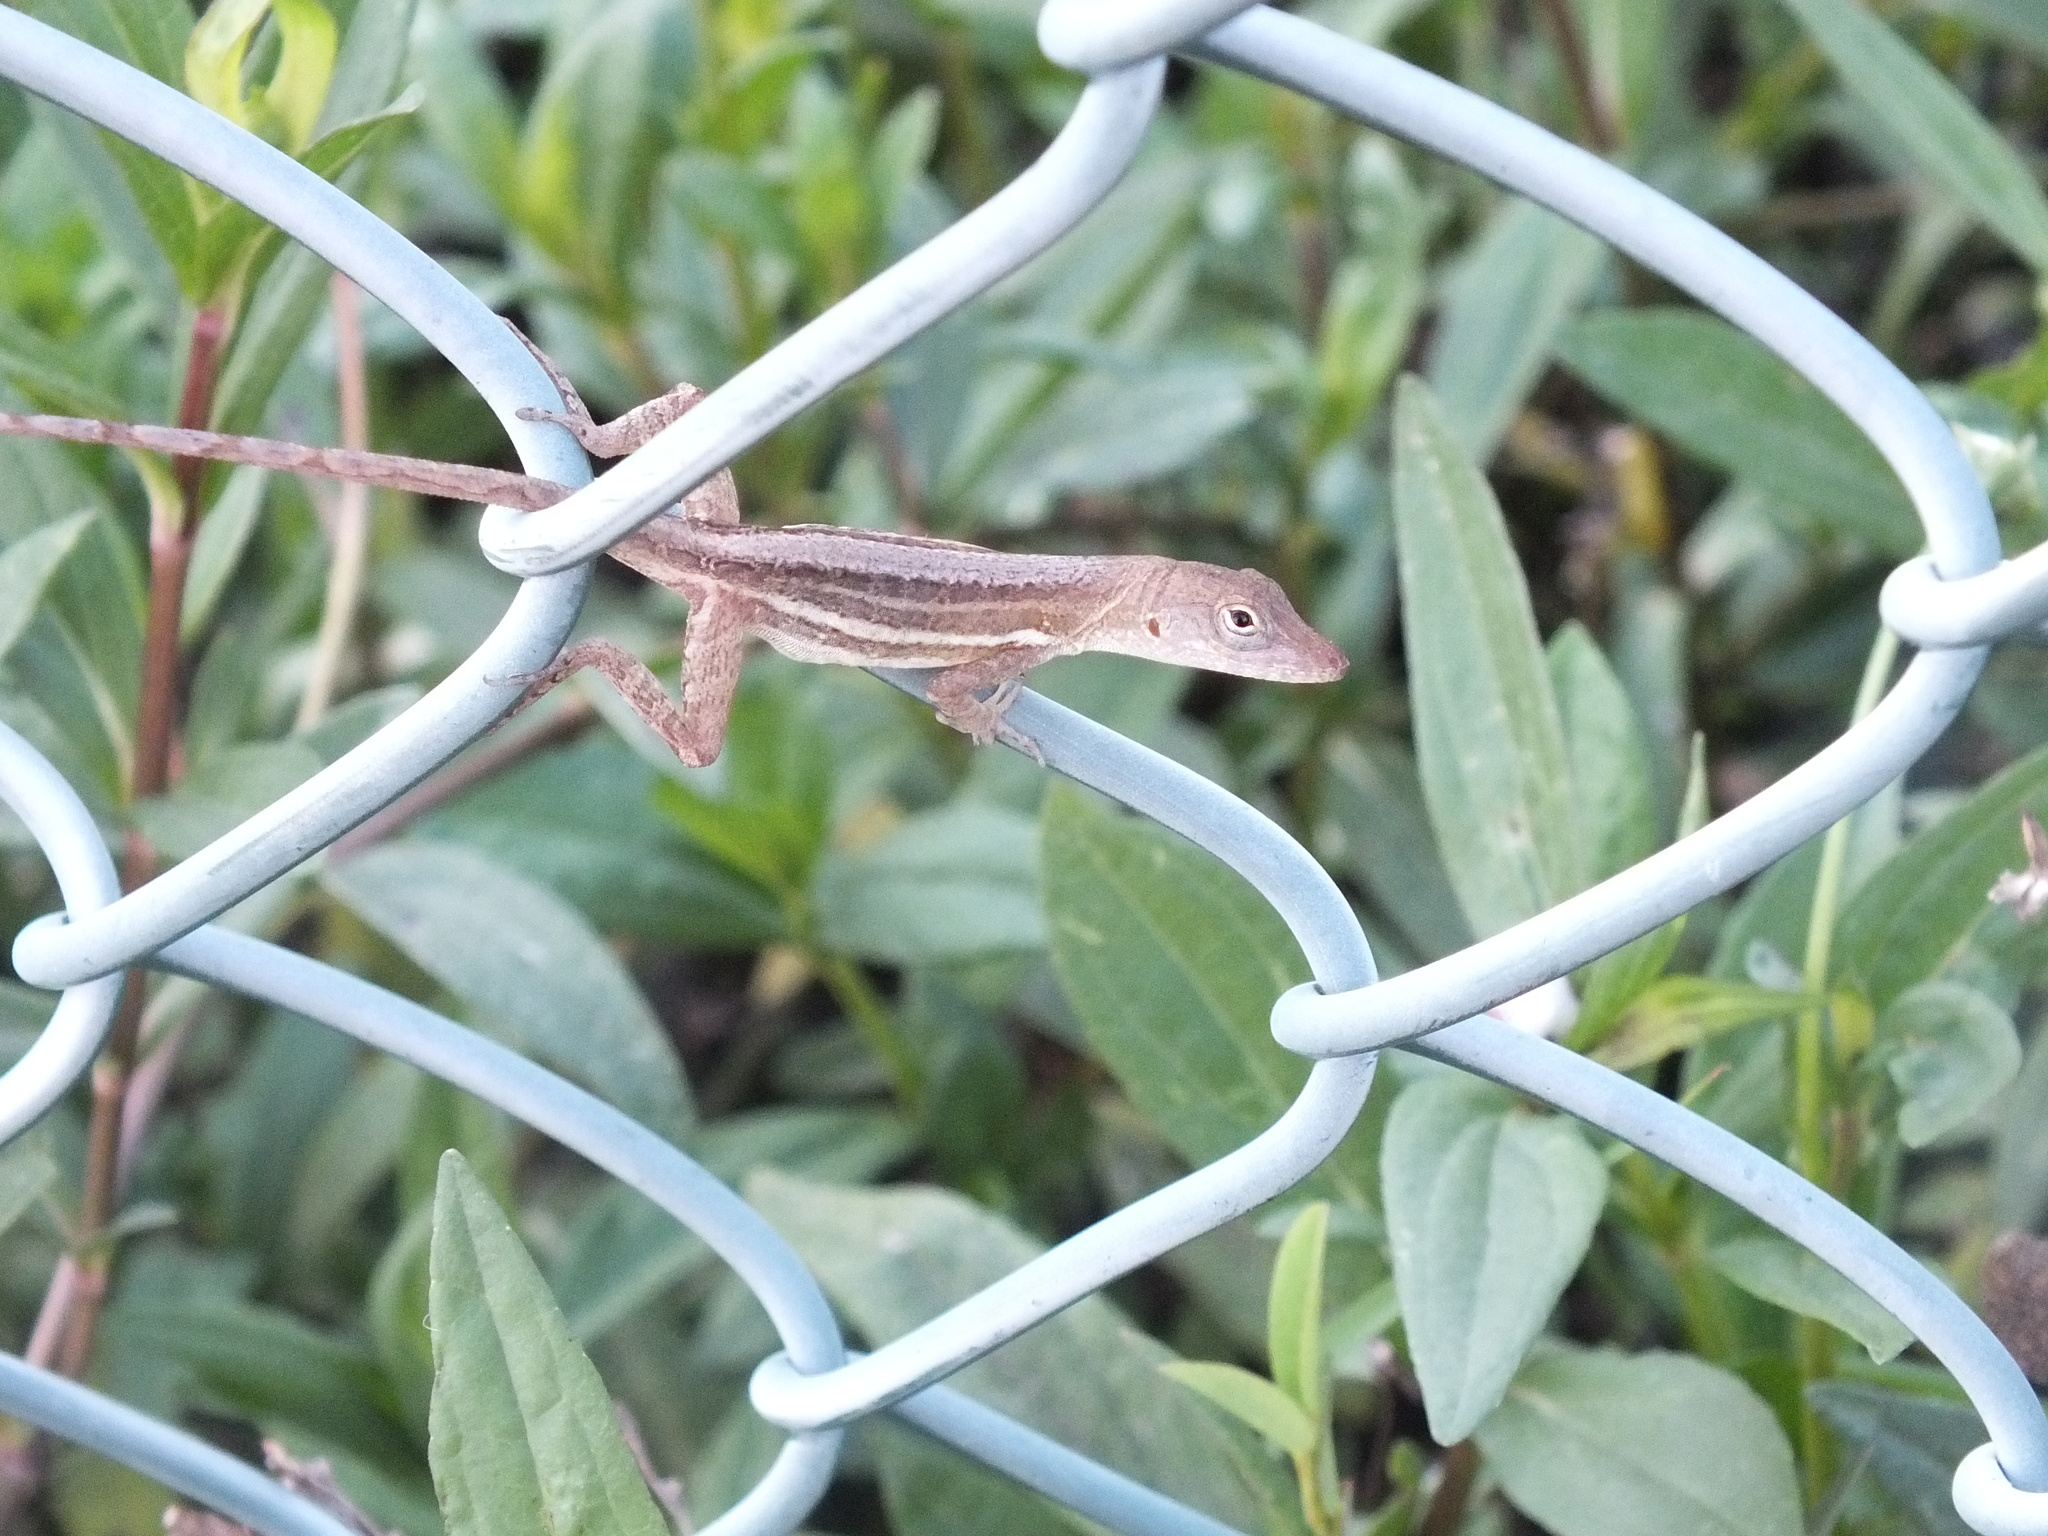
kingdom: Animalia
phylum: Chordata
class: Squamata
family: Dactyloidae
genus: Anolis
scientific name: Anolis lineatopus
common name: Stripefoot anole
